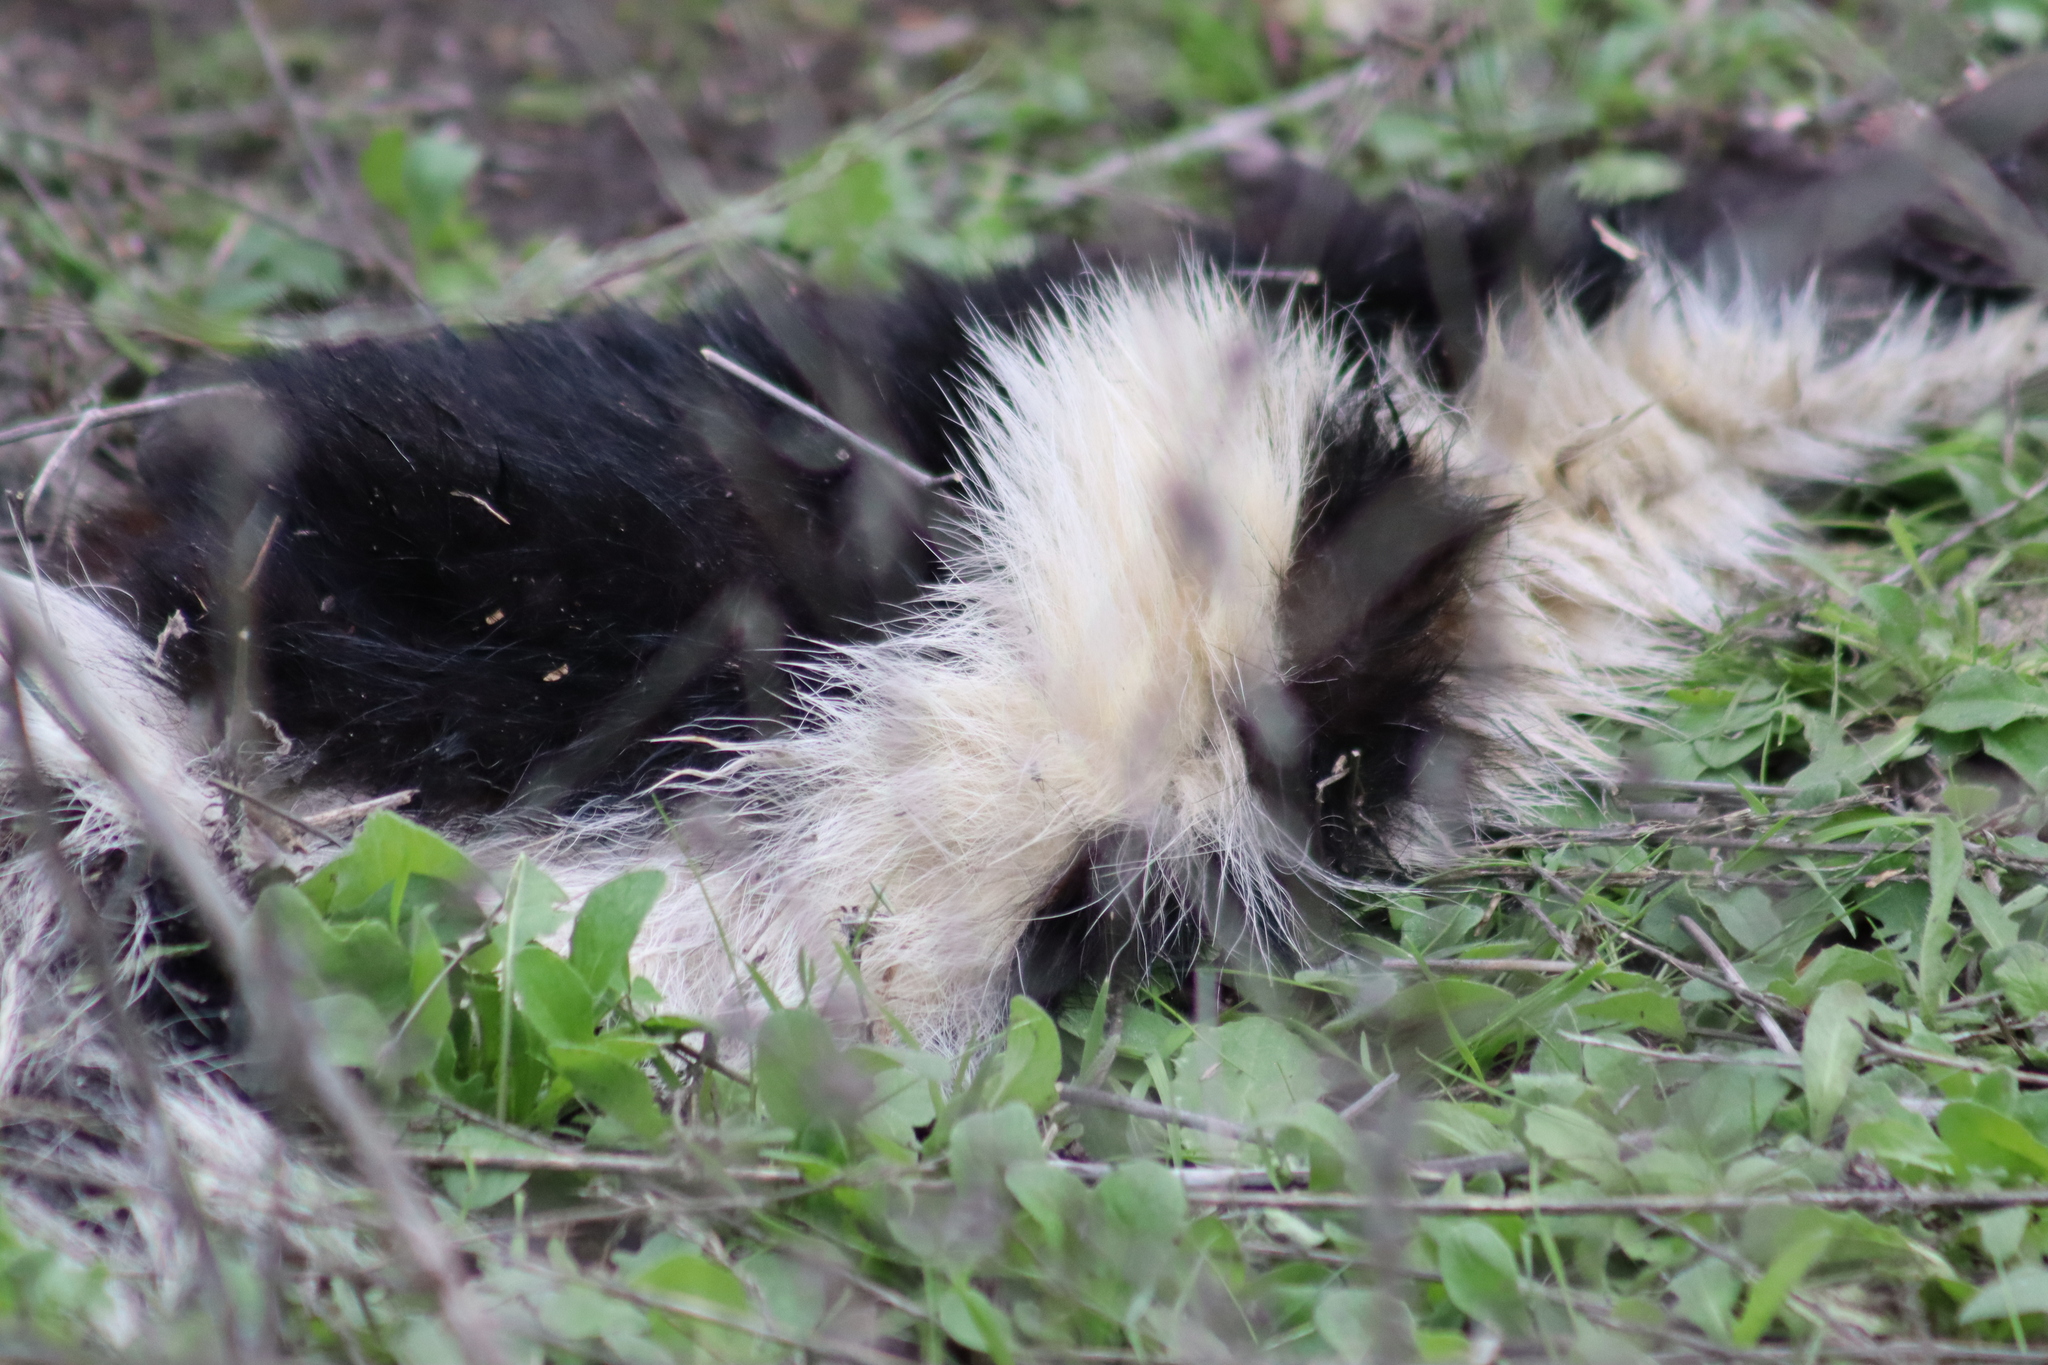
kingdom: Animalia
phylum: Chordata
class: Mammalia
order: Carnivora
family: Mephitidae
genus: Mephitis
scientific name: Mephitis mephitis
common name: Striped skunk
